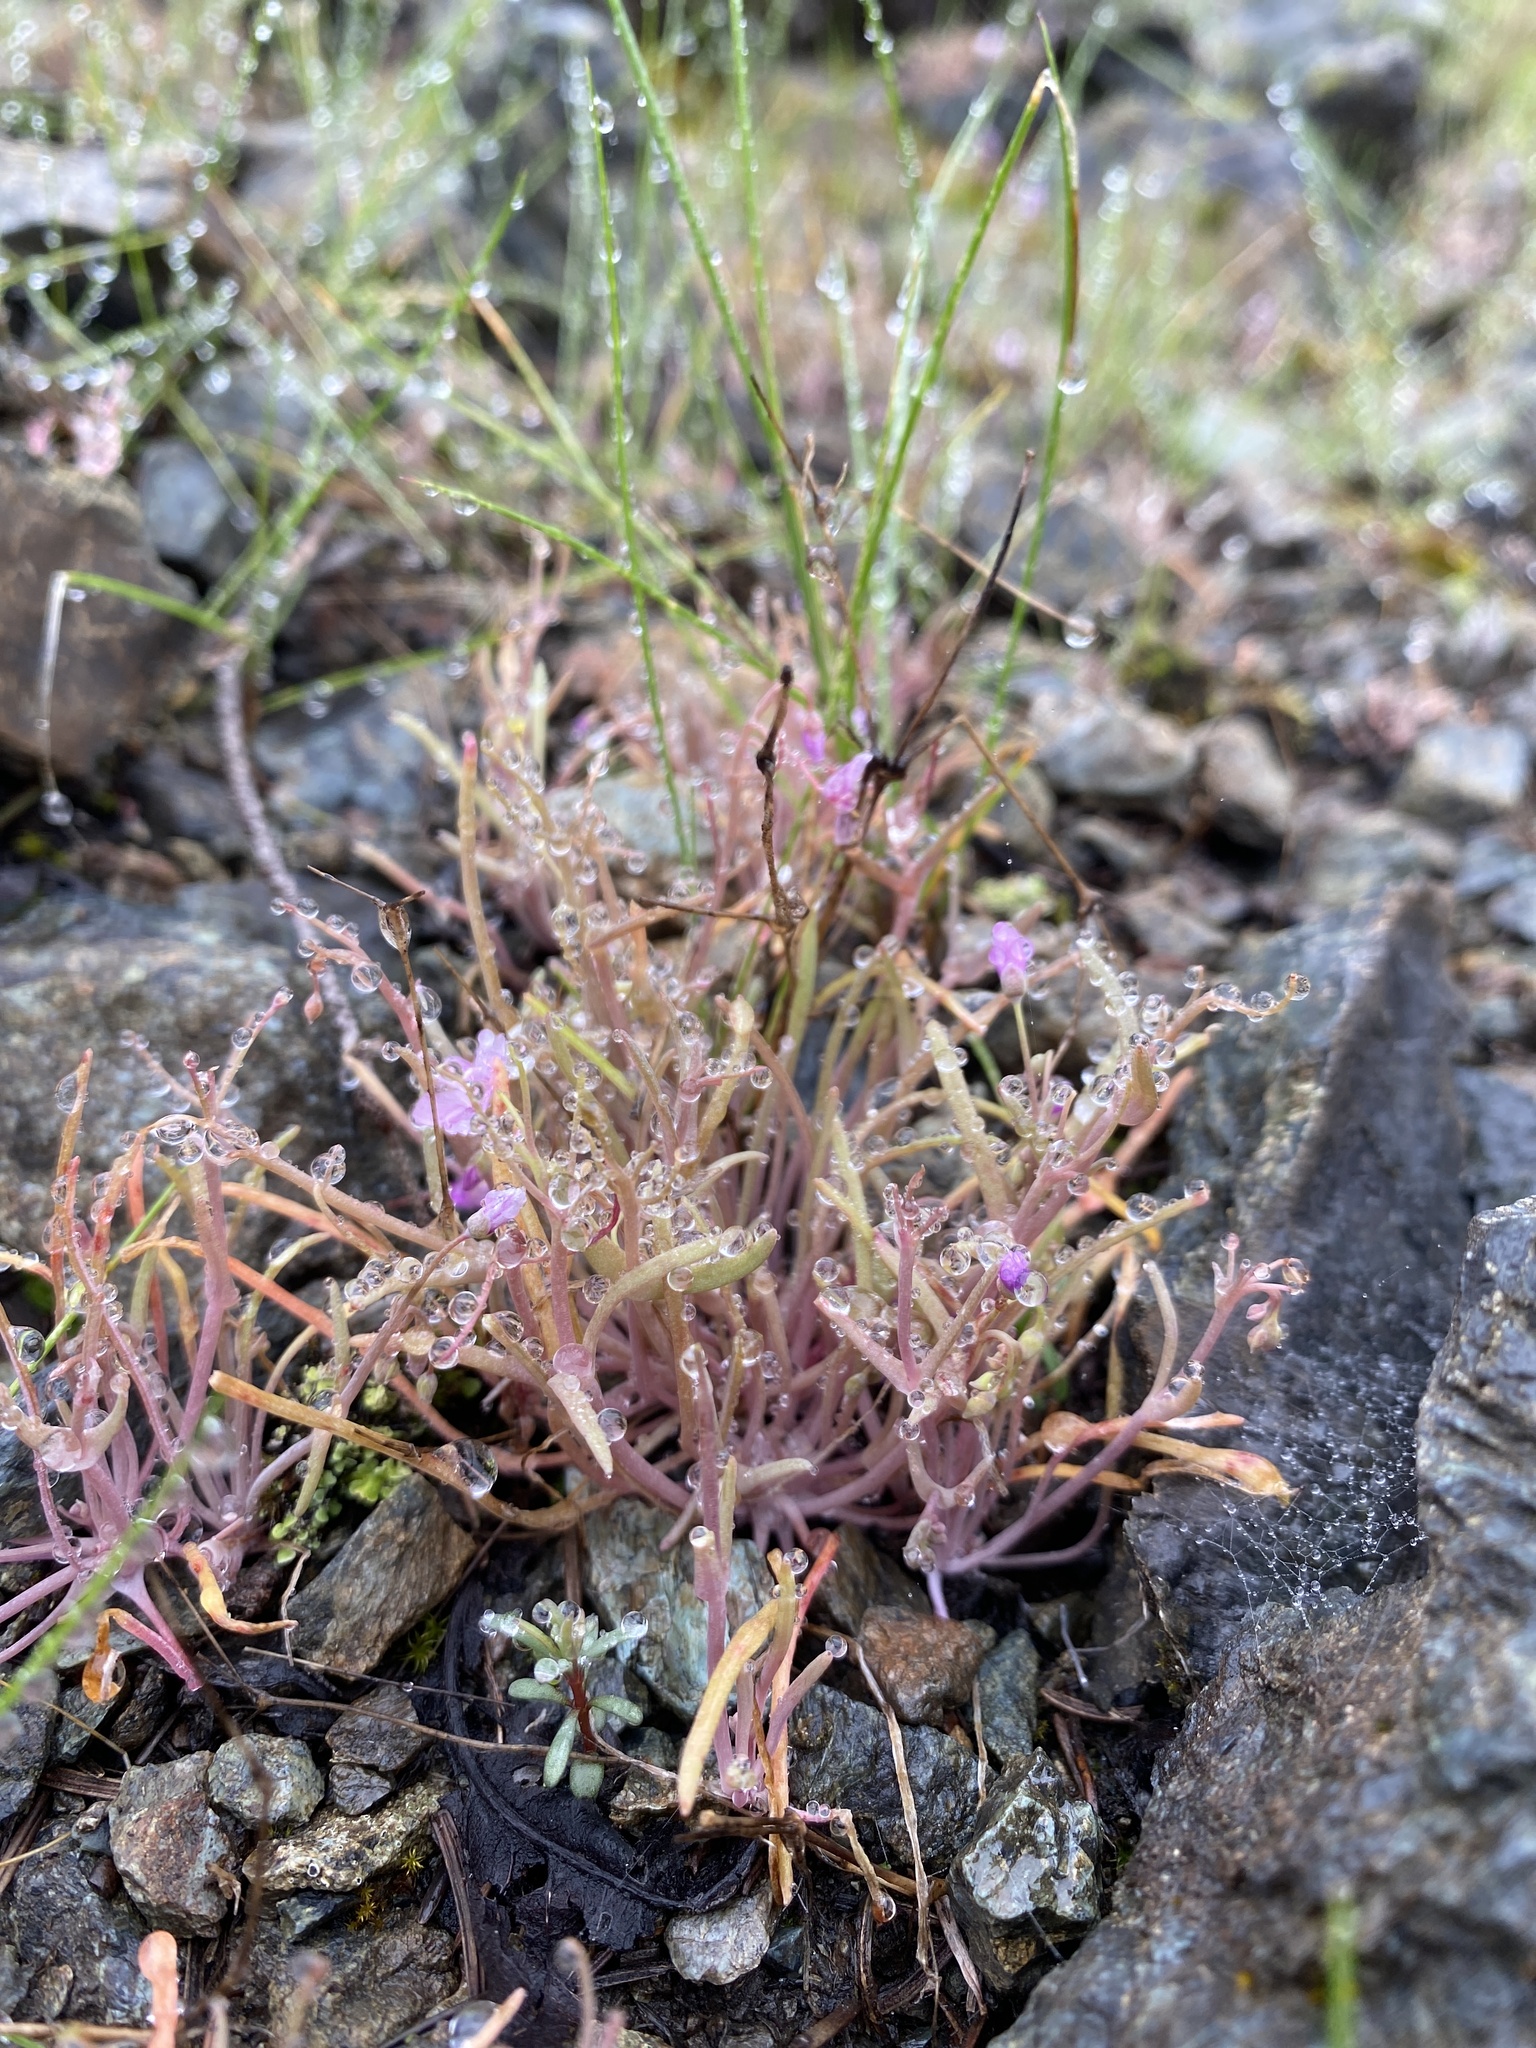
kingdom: Plantae
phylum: Tracheophyta
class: Magnoliopsida
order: Caryophyllales
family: Montiaceae
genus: Claytonia
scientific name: Claytonia gypsophiloides
